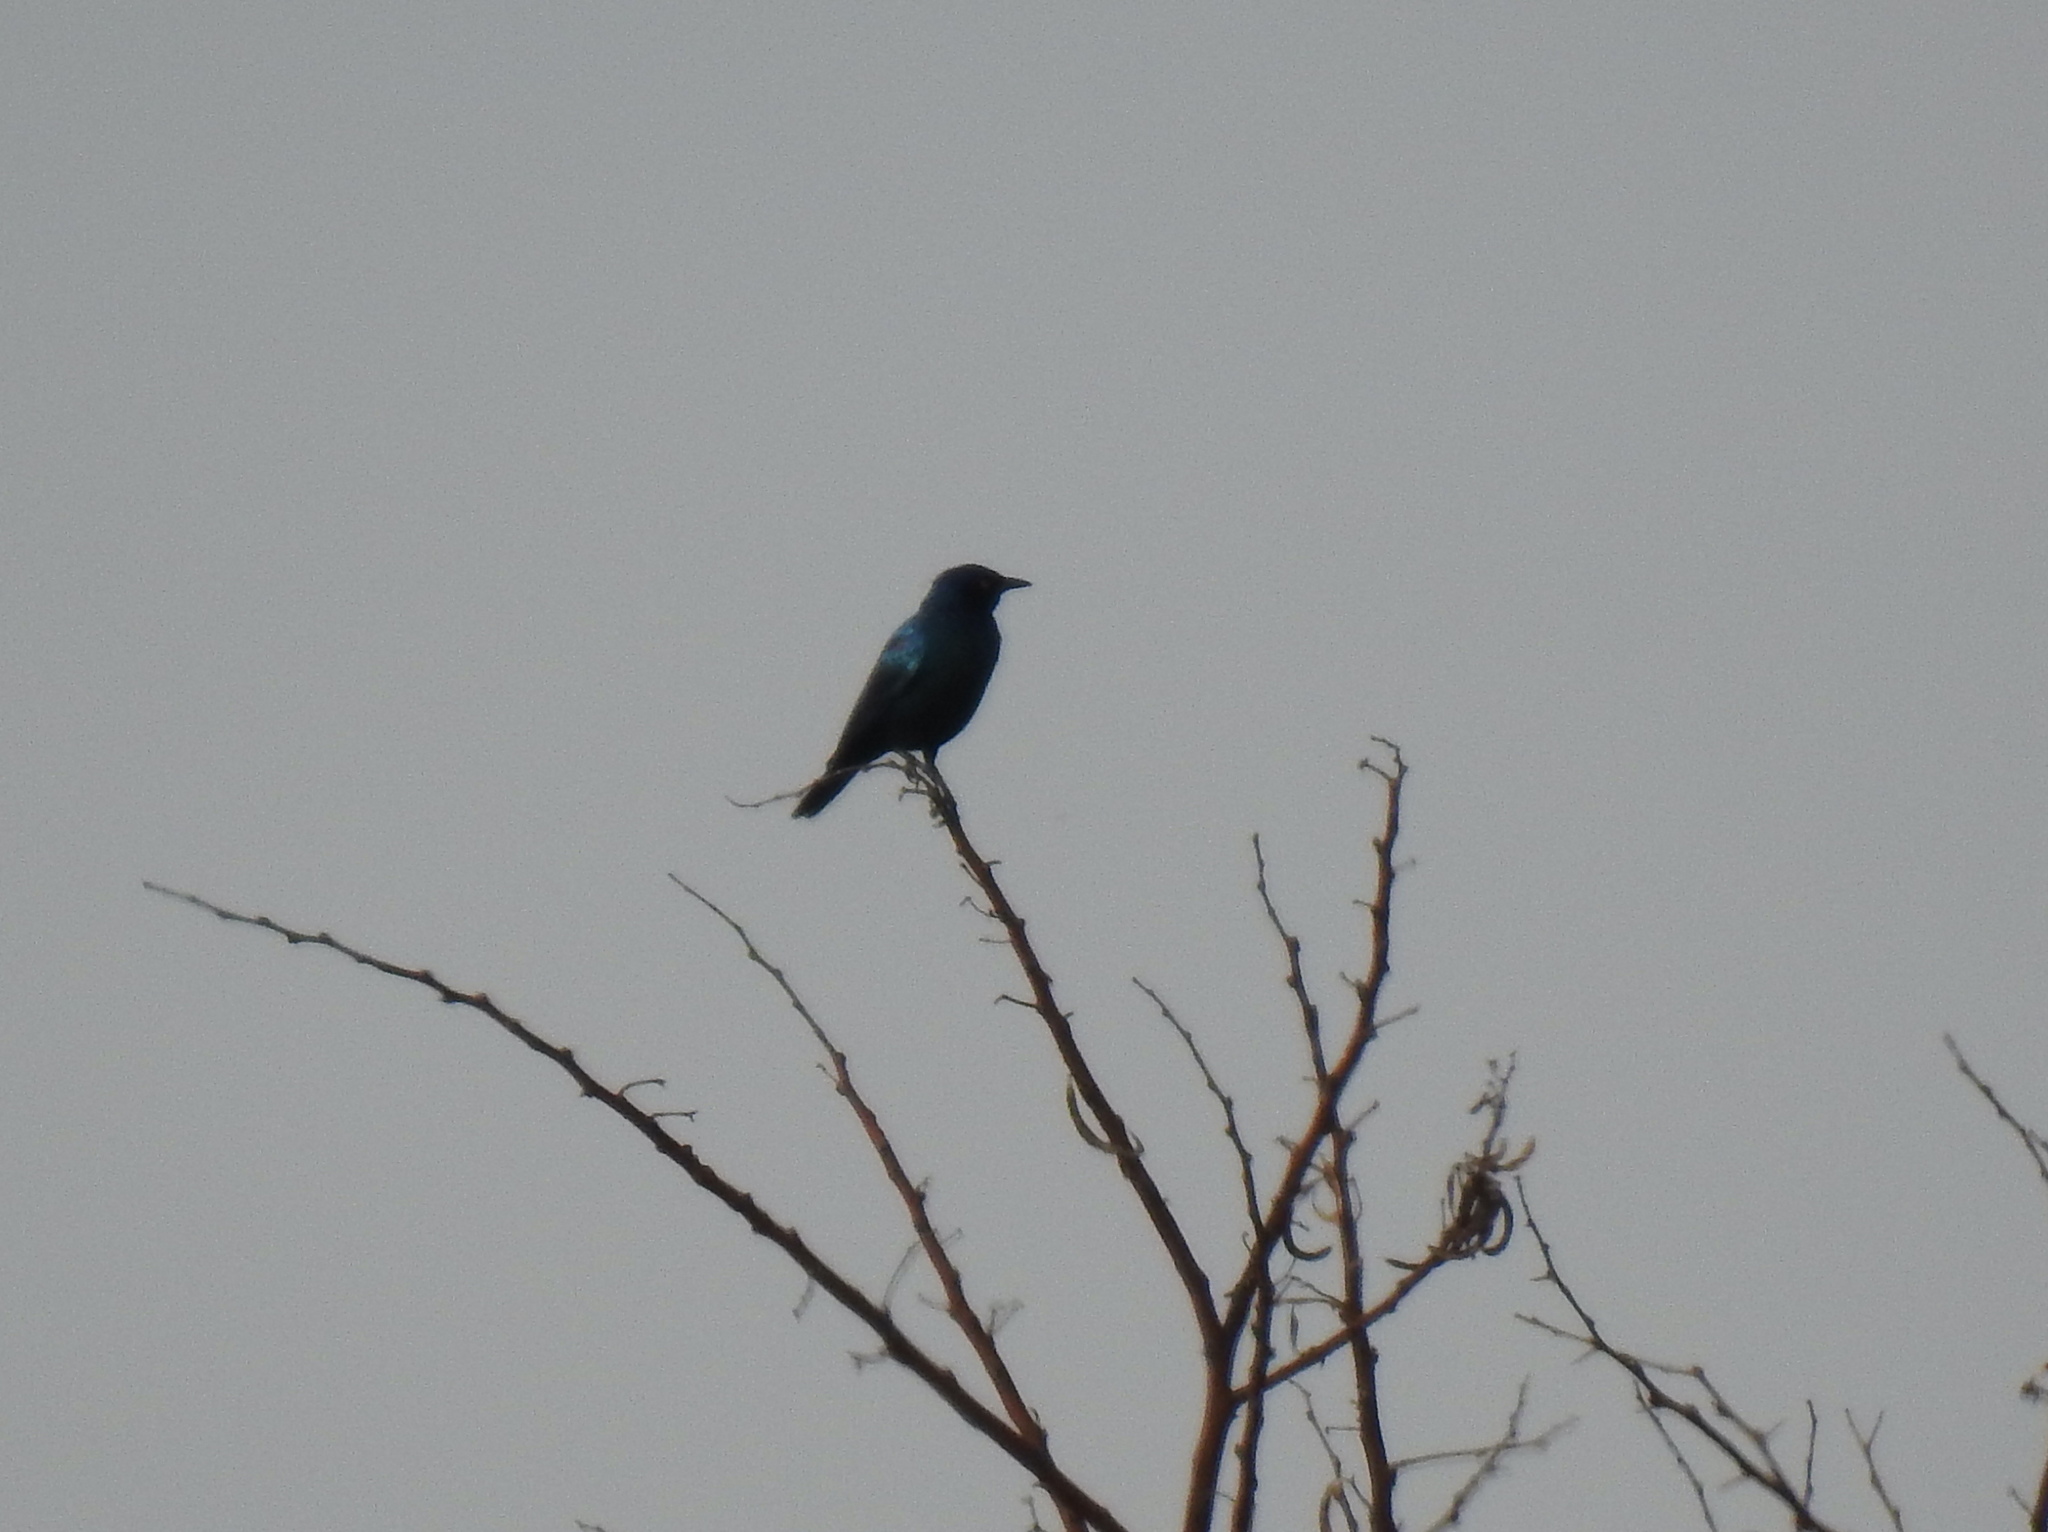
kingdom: Animalia
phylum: Chordata
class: Aves
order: Passeriformes
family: Sturnidae
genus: Lamprotornis
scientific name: Lamprotornis nitens
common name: Cape starling
